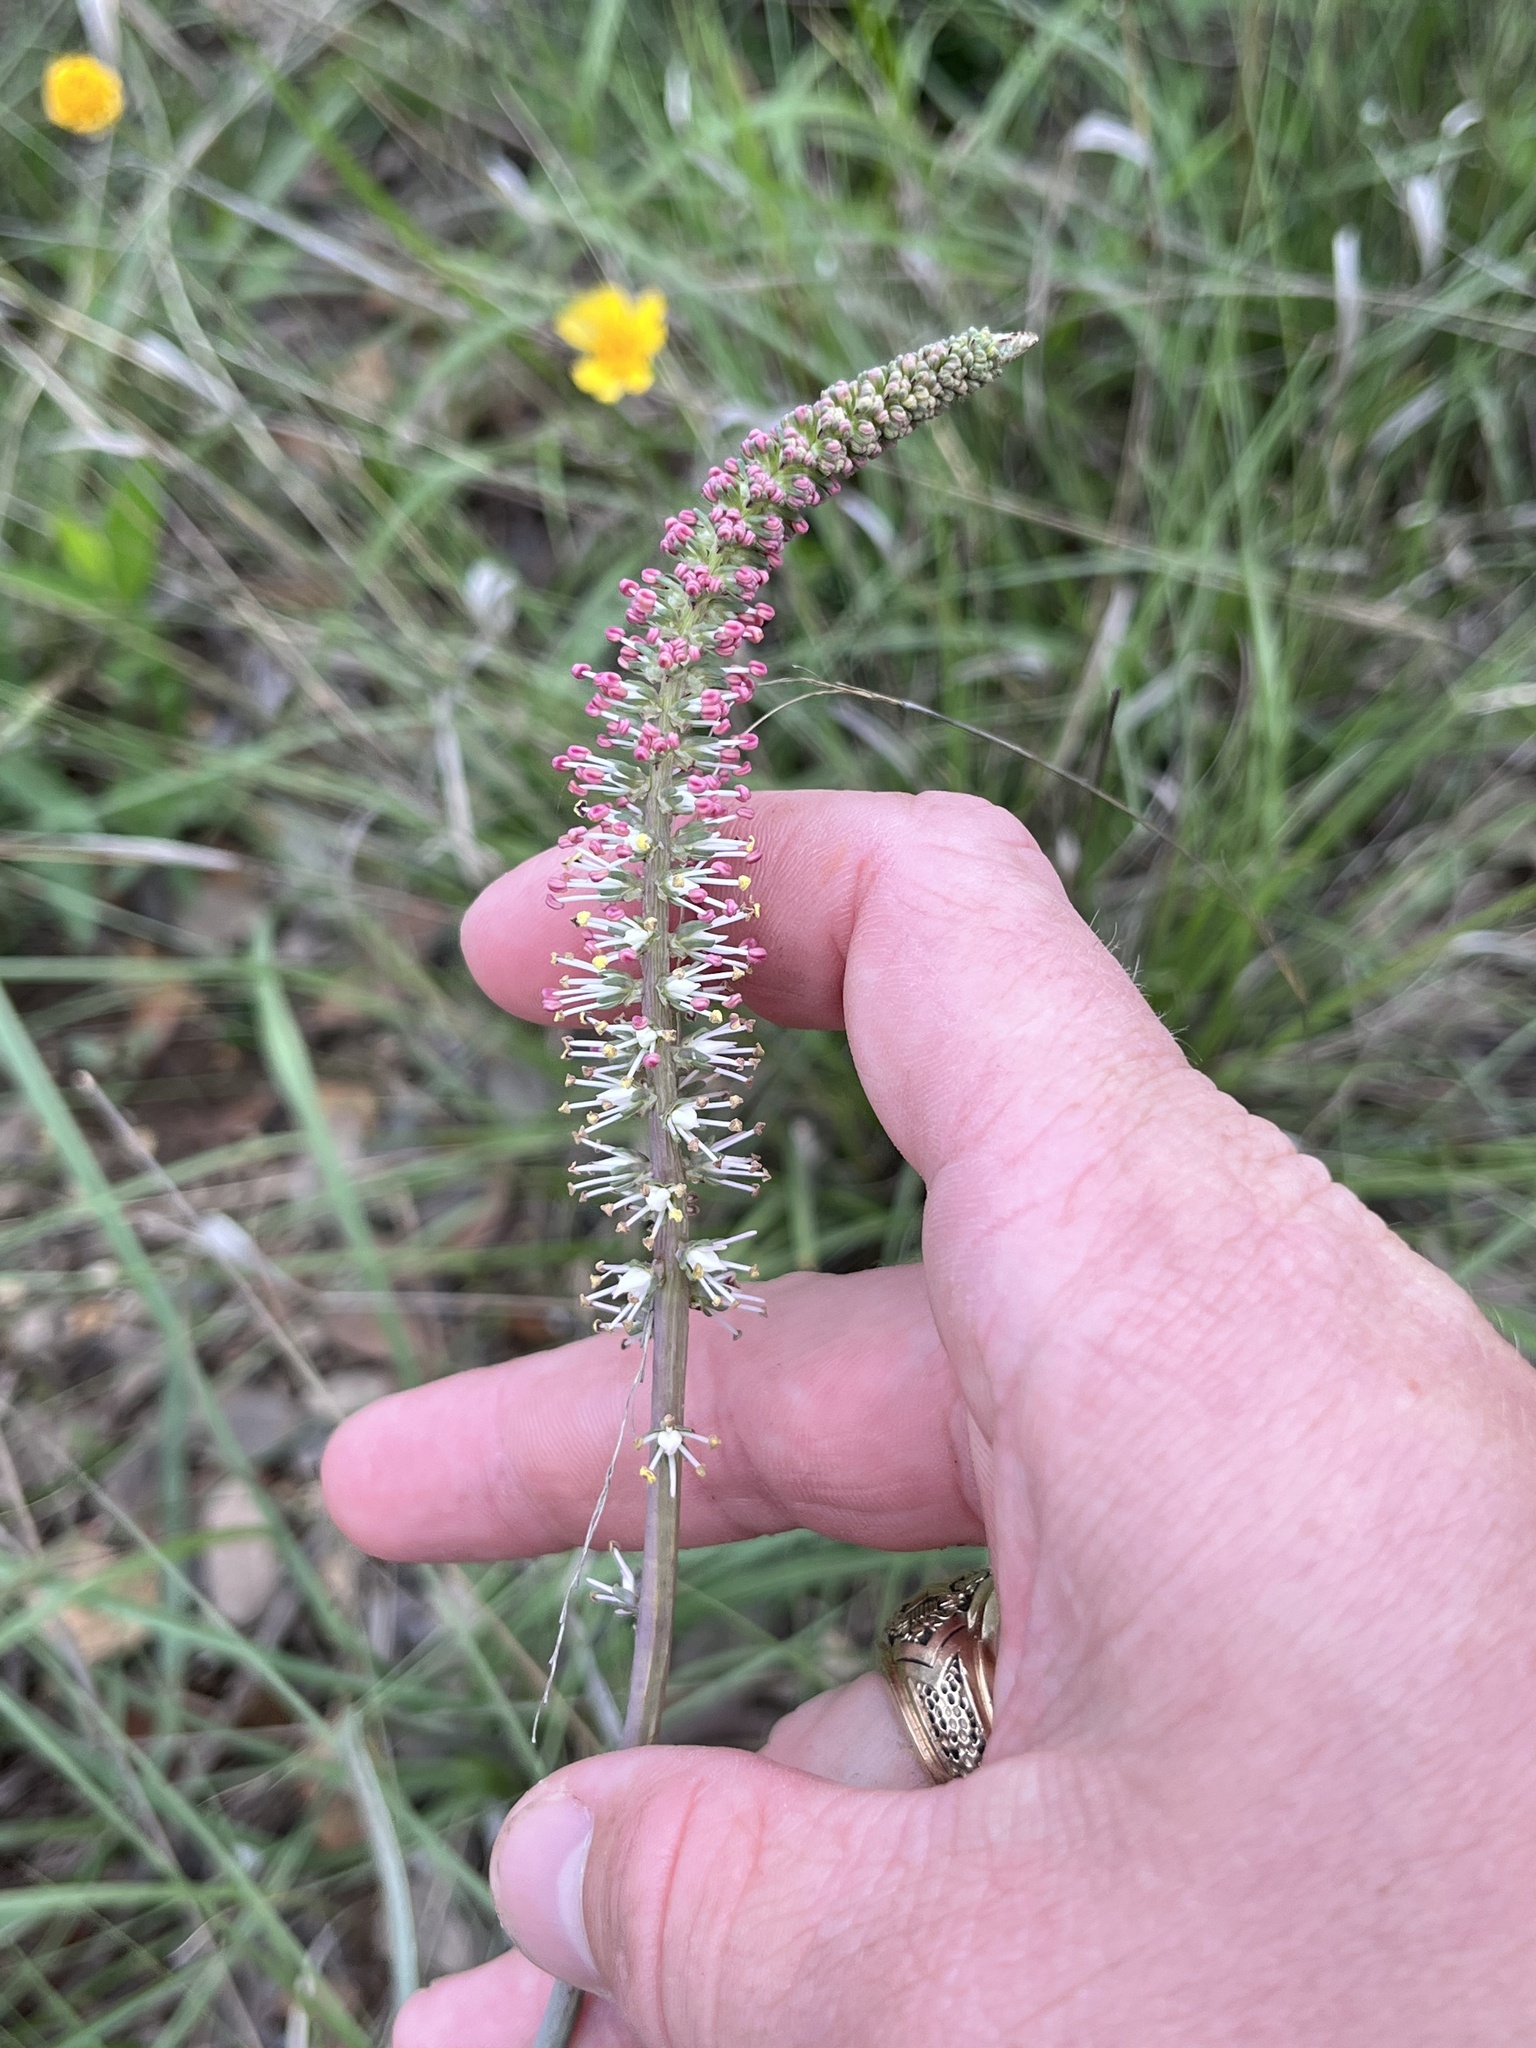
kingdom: Plantae
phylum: Tracheophyta
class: Liliopsida
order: Liliales
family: Melanthiaceae
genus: Schoenocaulon
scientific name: Schoenocaulon texanum
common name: Texas feather-shank
